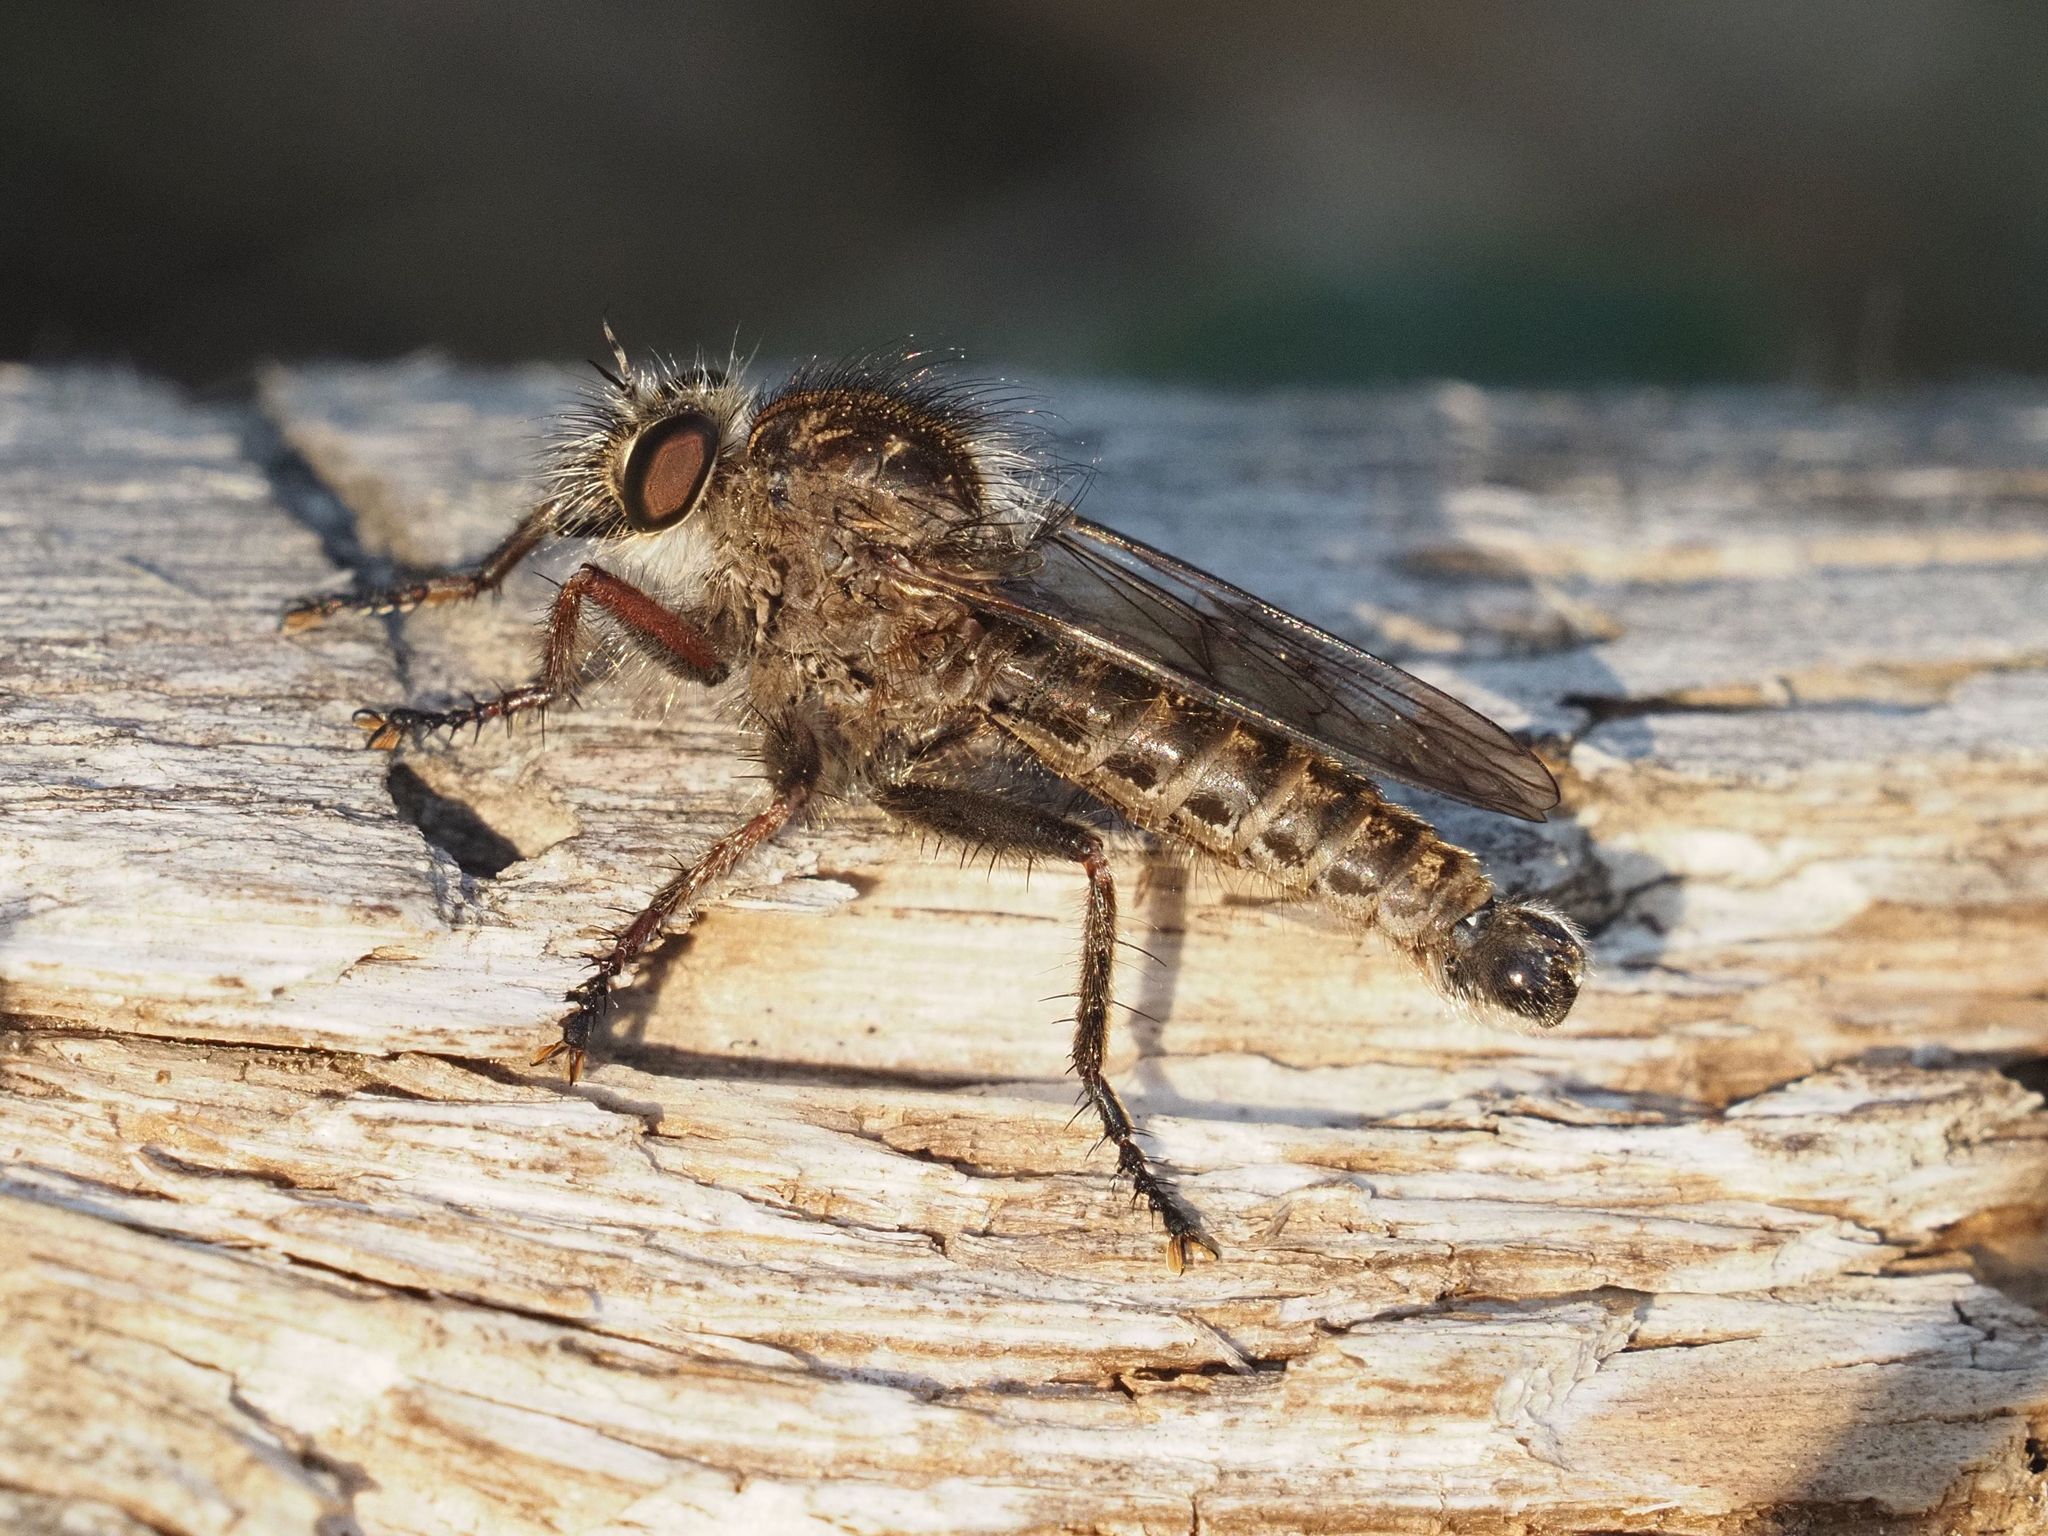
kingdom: Animalia
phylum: Arthropoda
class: Insecta
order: Diptera
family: Asilidae
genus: Erax
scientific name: Erax barbatus
